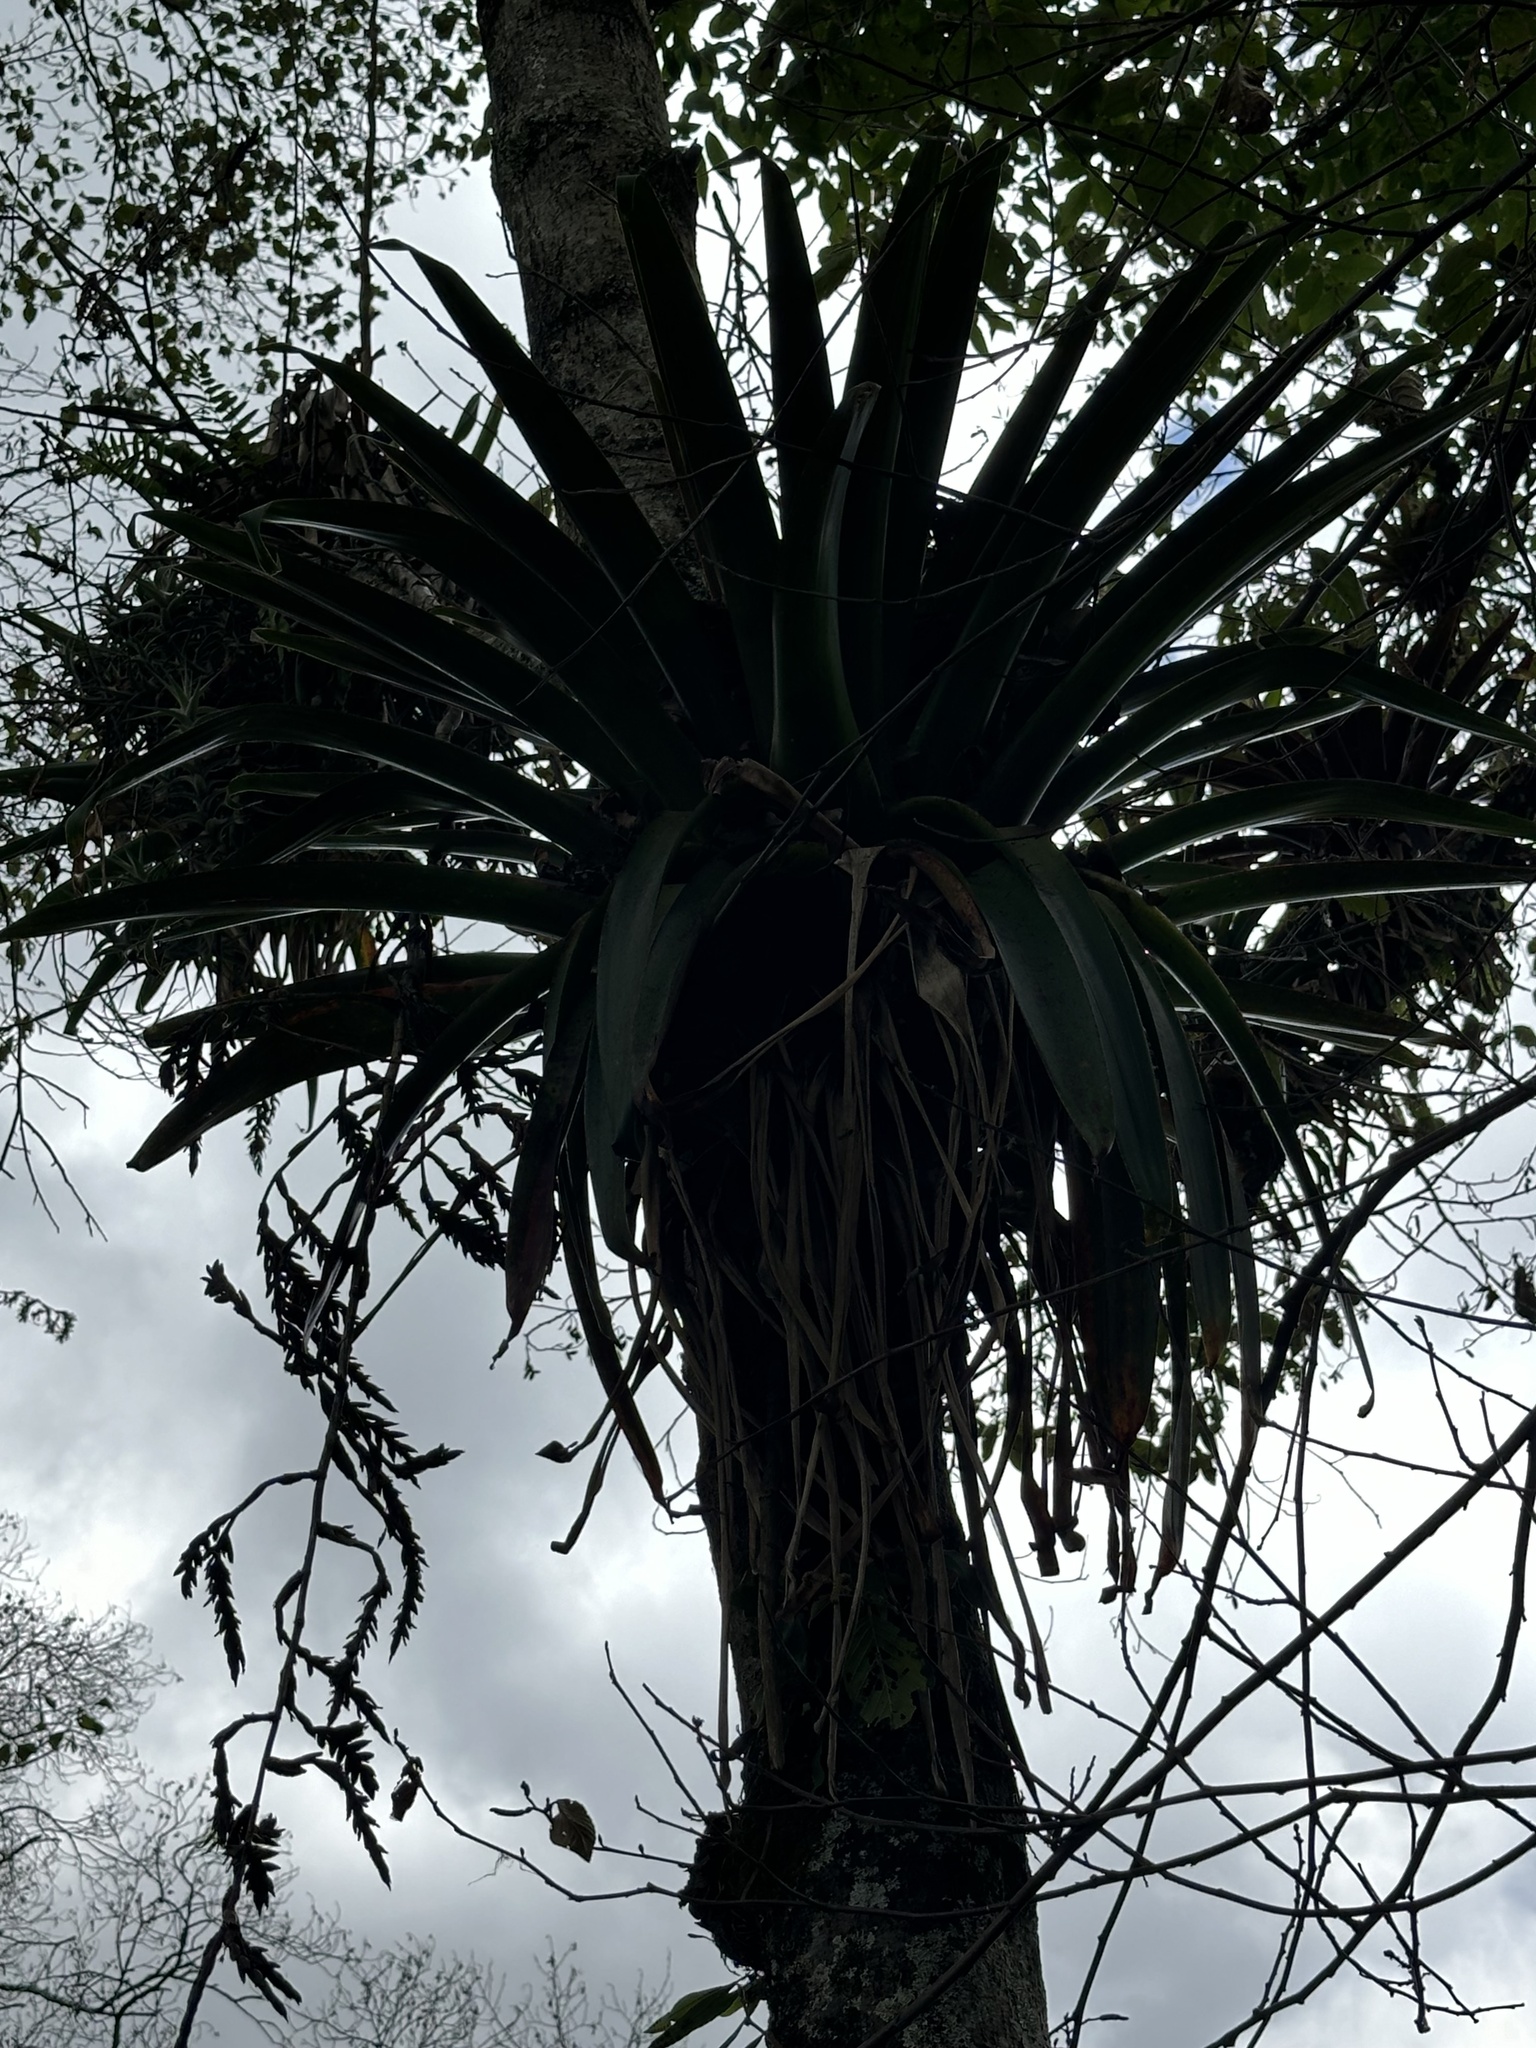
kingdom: Plantae
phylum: Tracheophyta
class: Liliopsida
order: Poales
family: Bromeliaceae
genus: Tillandsia
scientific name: Tillandsia denudata
